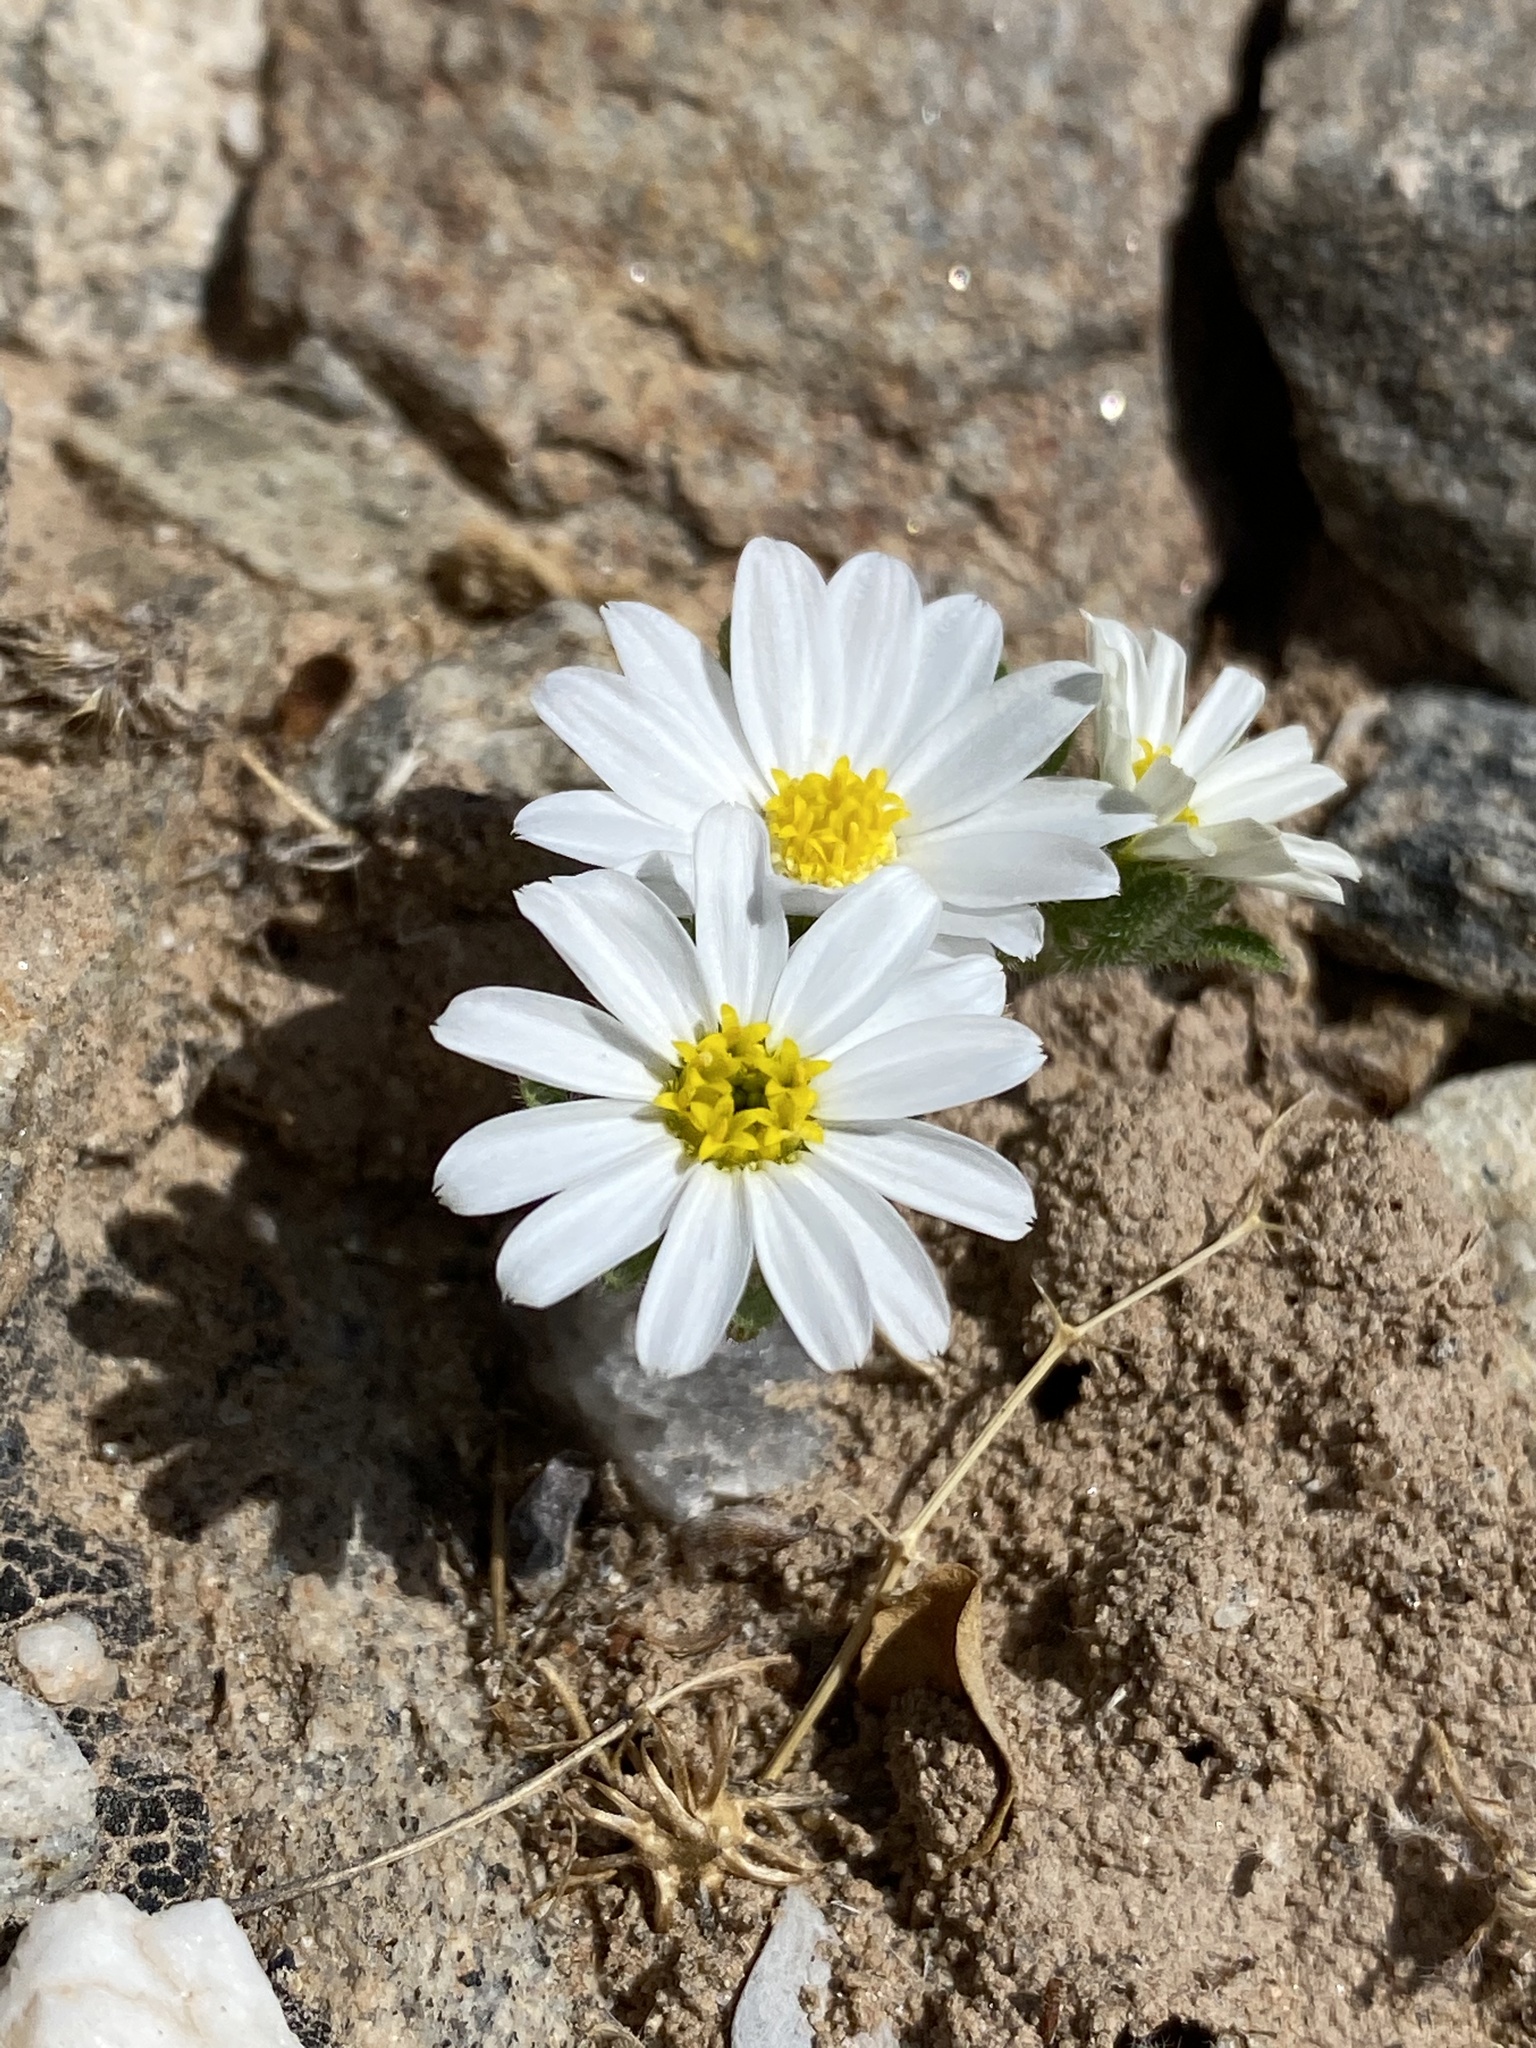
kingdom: Plantae
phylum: Tracheophyta
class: Magnoliopsida
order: Asterales
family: Asteraceae
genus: Monoptilon
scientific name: Monoptilon bellioides
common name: Bristly desertstar
